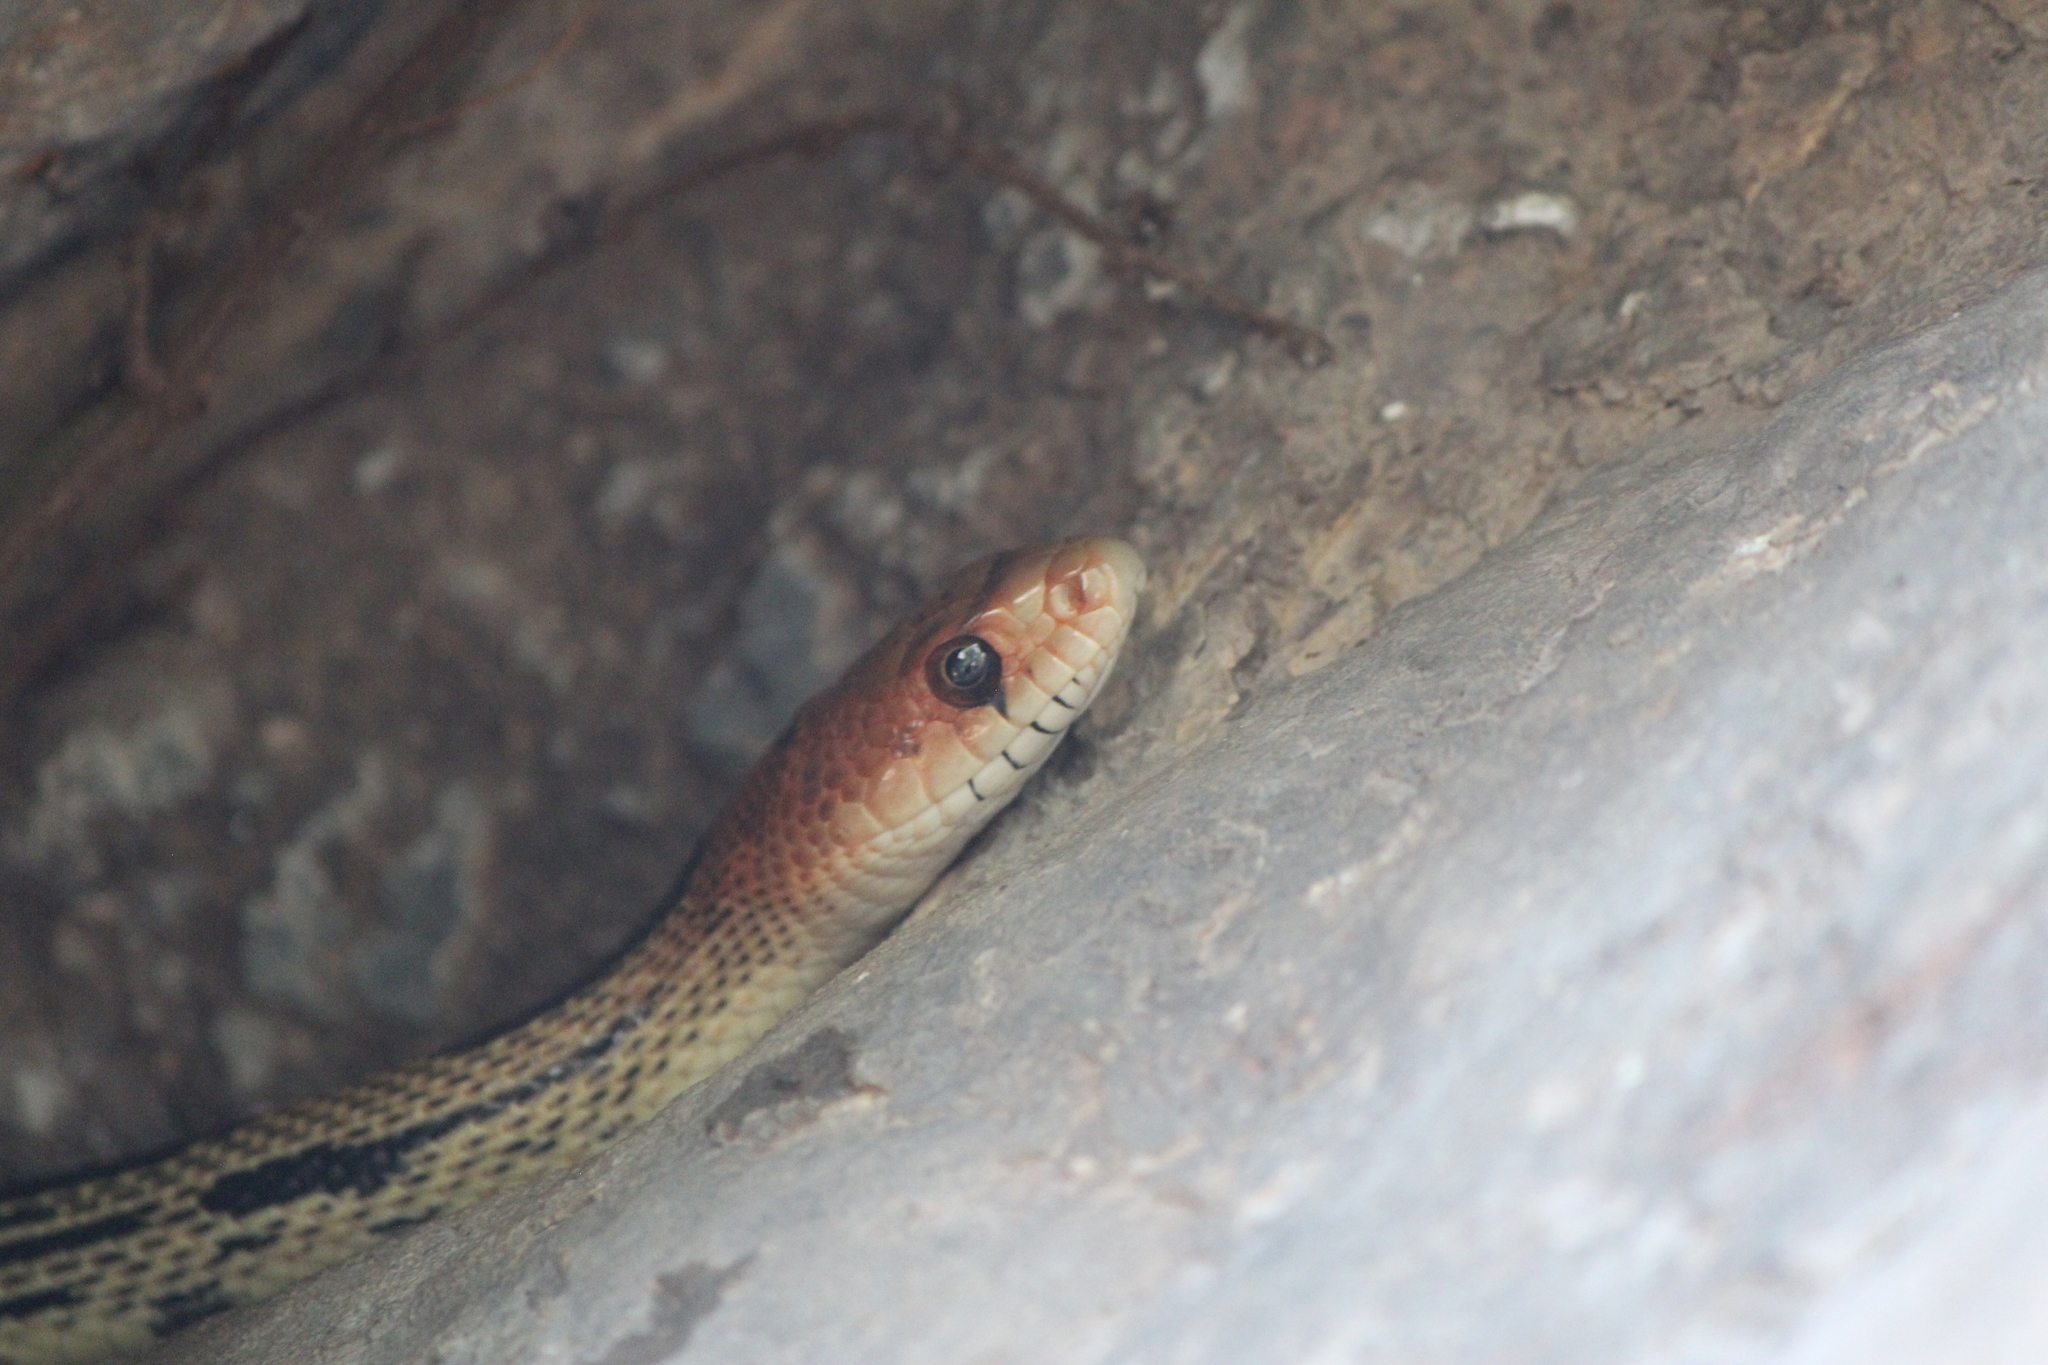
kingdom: Animalia
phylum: Chordata
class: Squamata
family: Colubridae
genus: Pituophis
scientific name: Pituophis deppei
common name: Mexican bull snake
